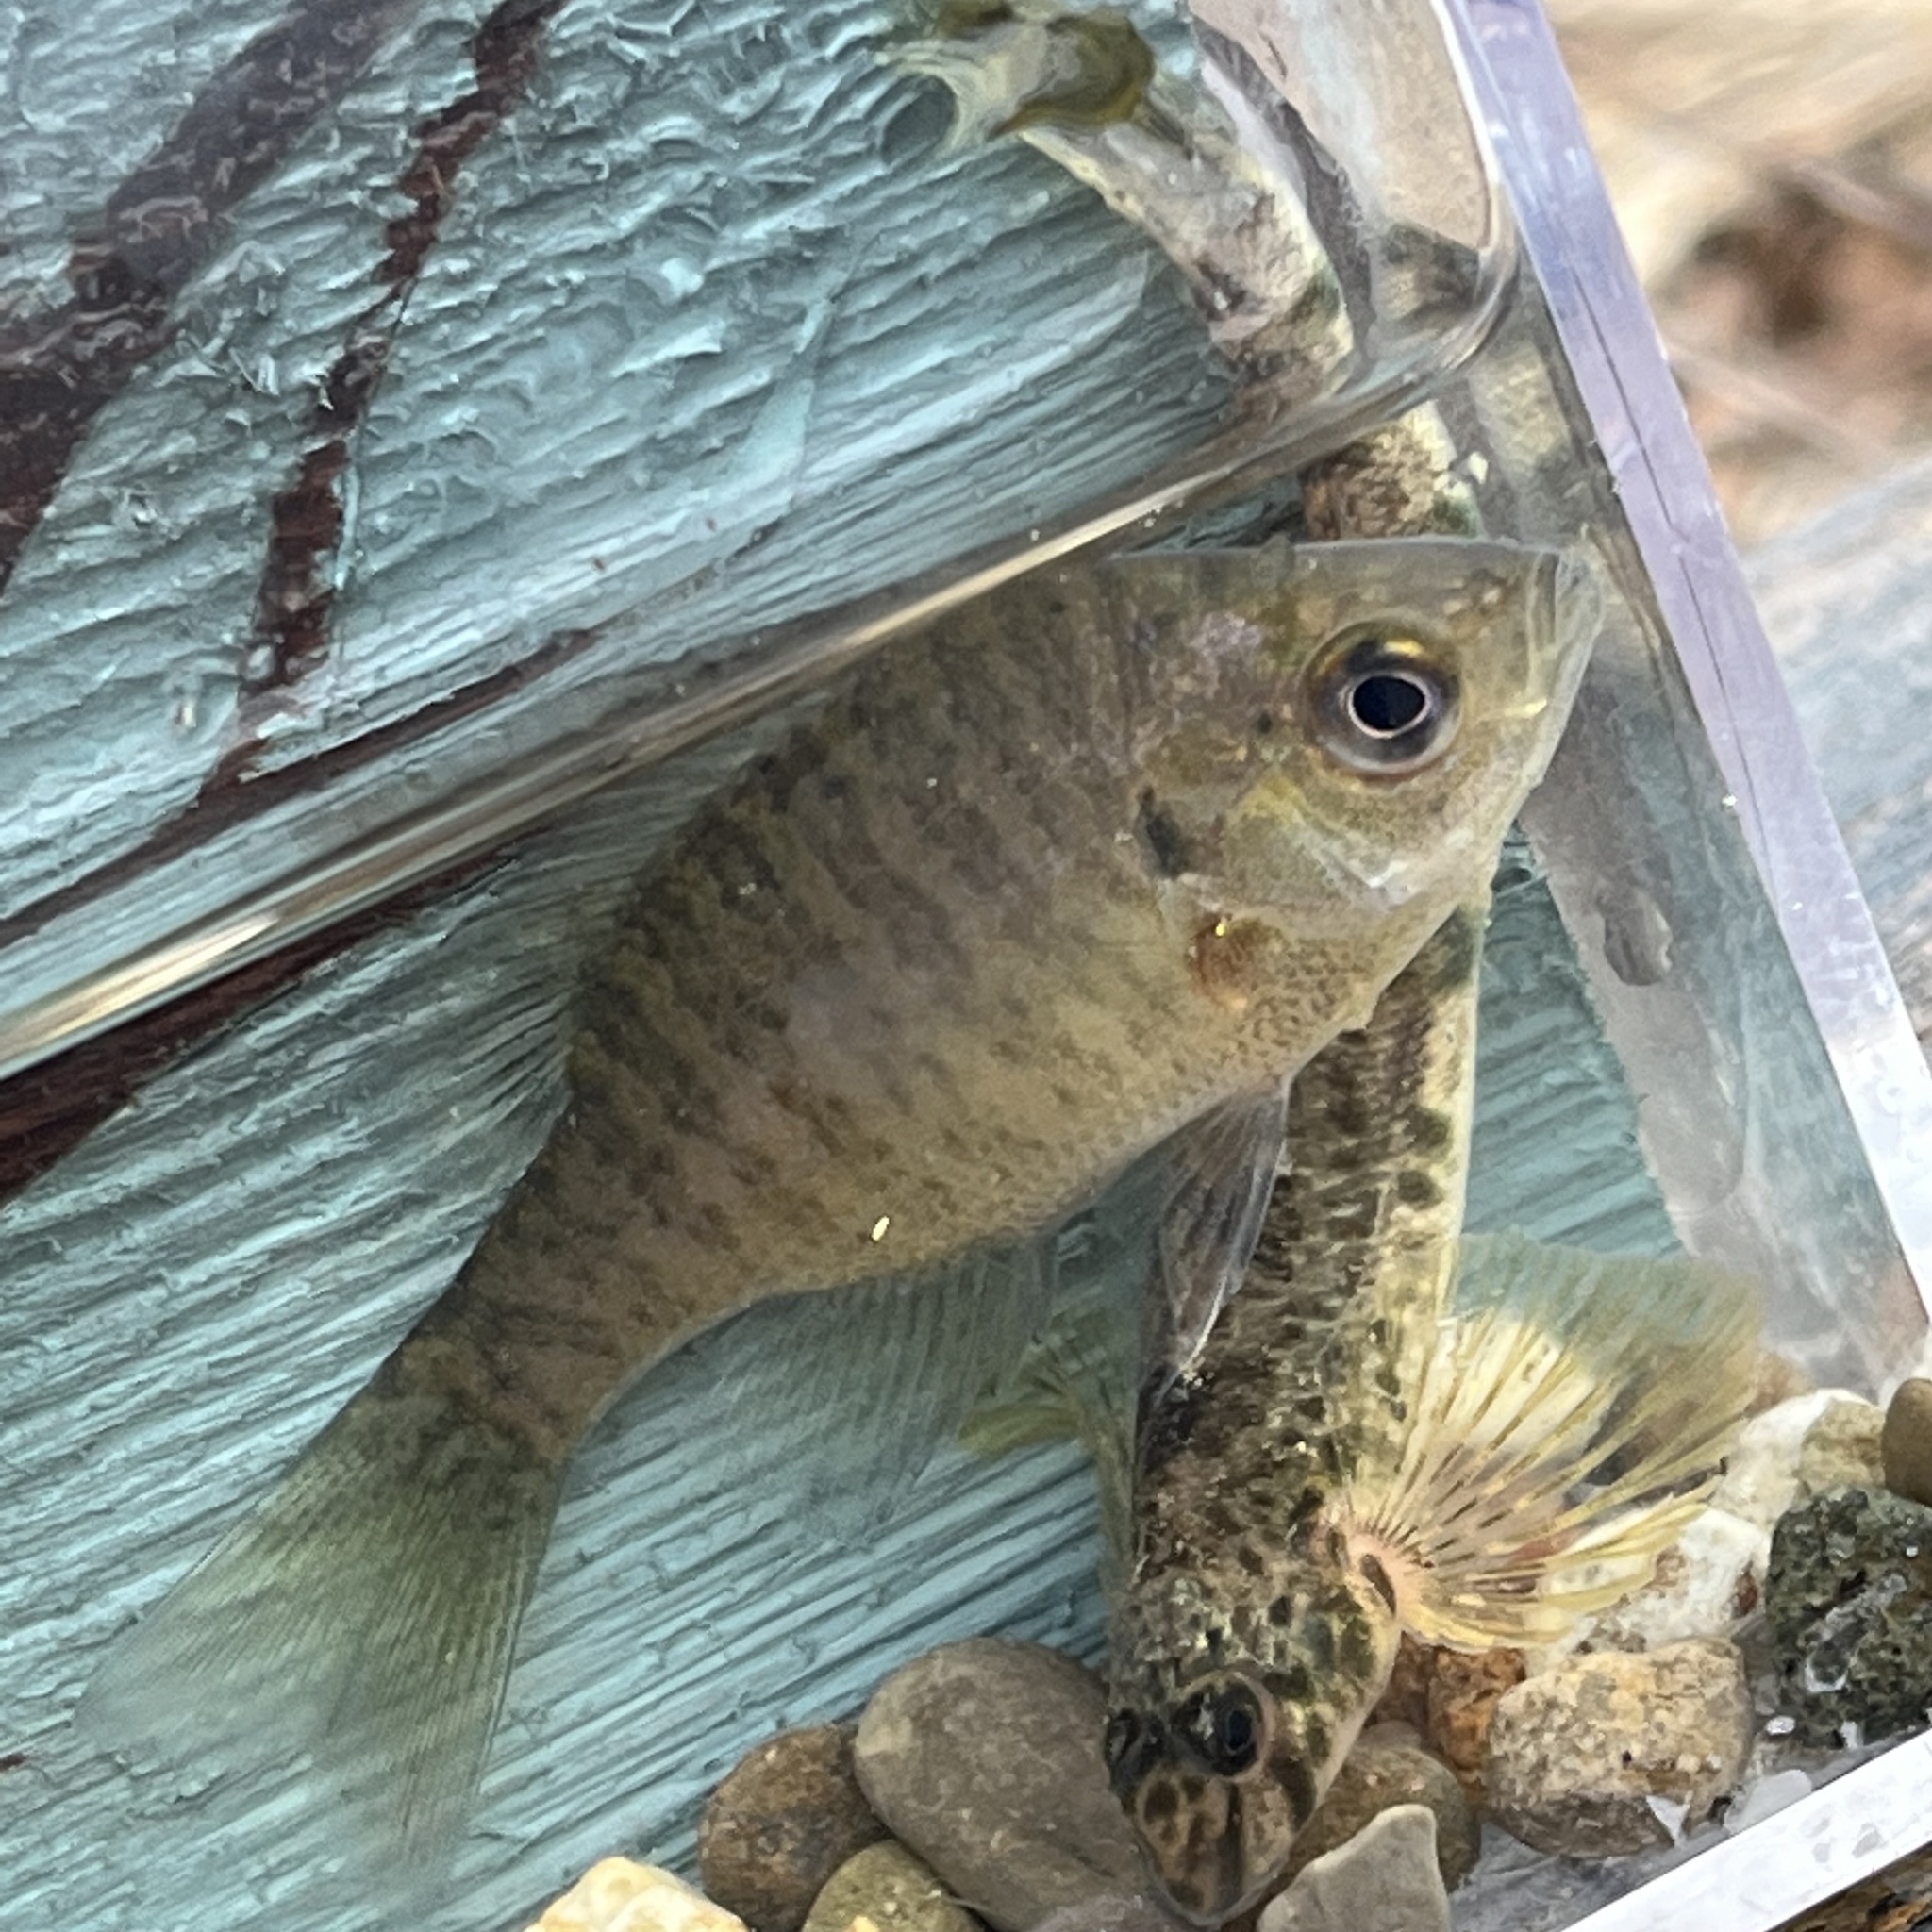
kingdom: Animalia
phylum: Chordata
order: Perciformes
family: Centrarchidae
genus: Lepomis
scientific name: Lepomis macrochirus
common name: Bluegill
